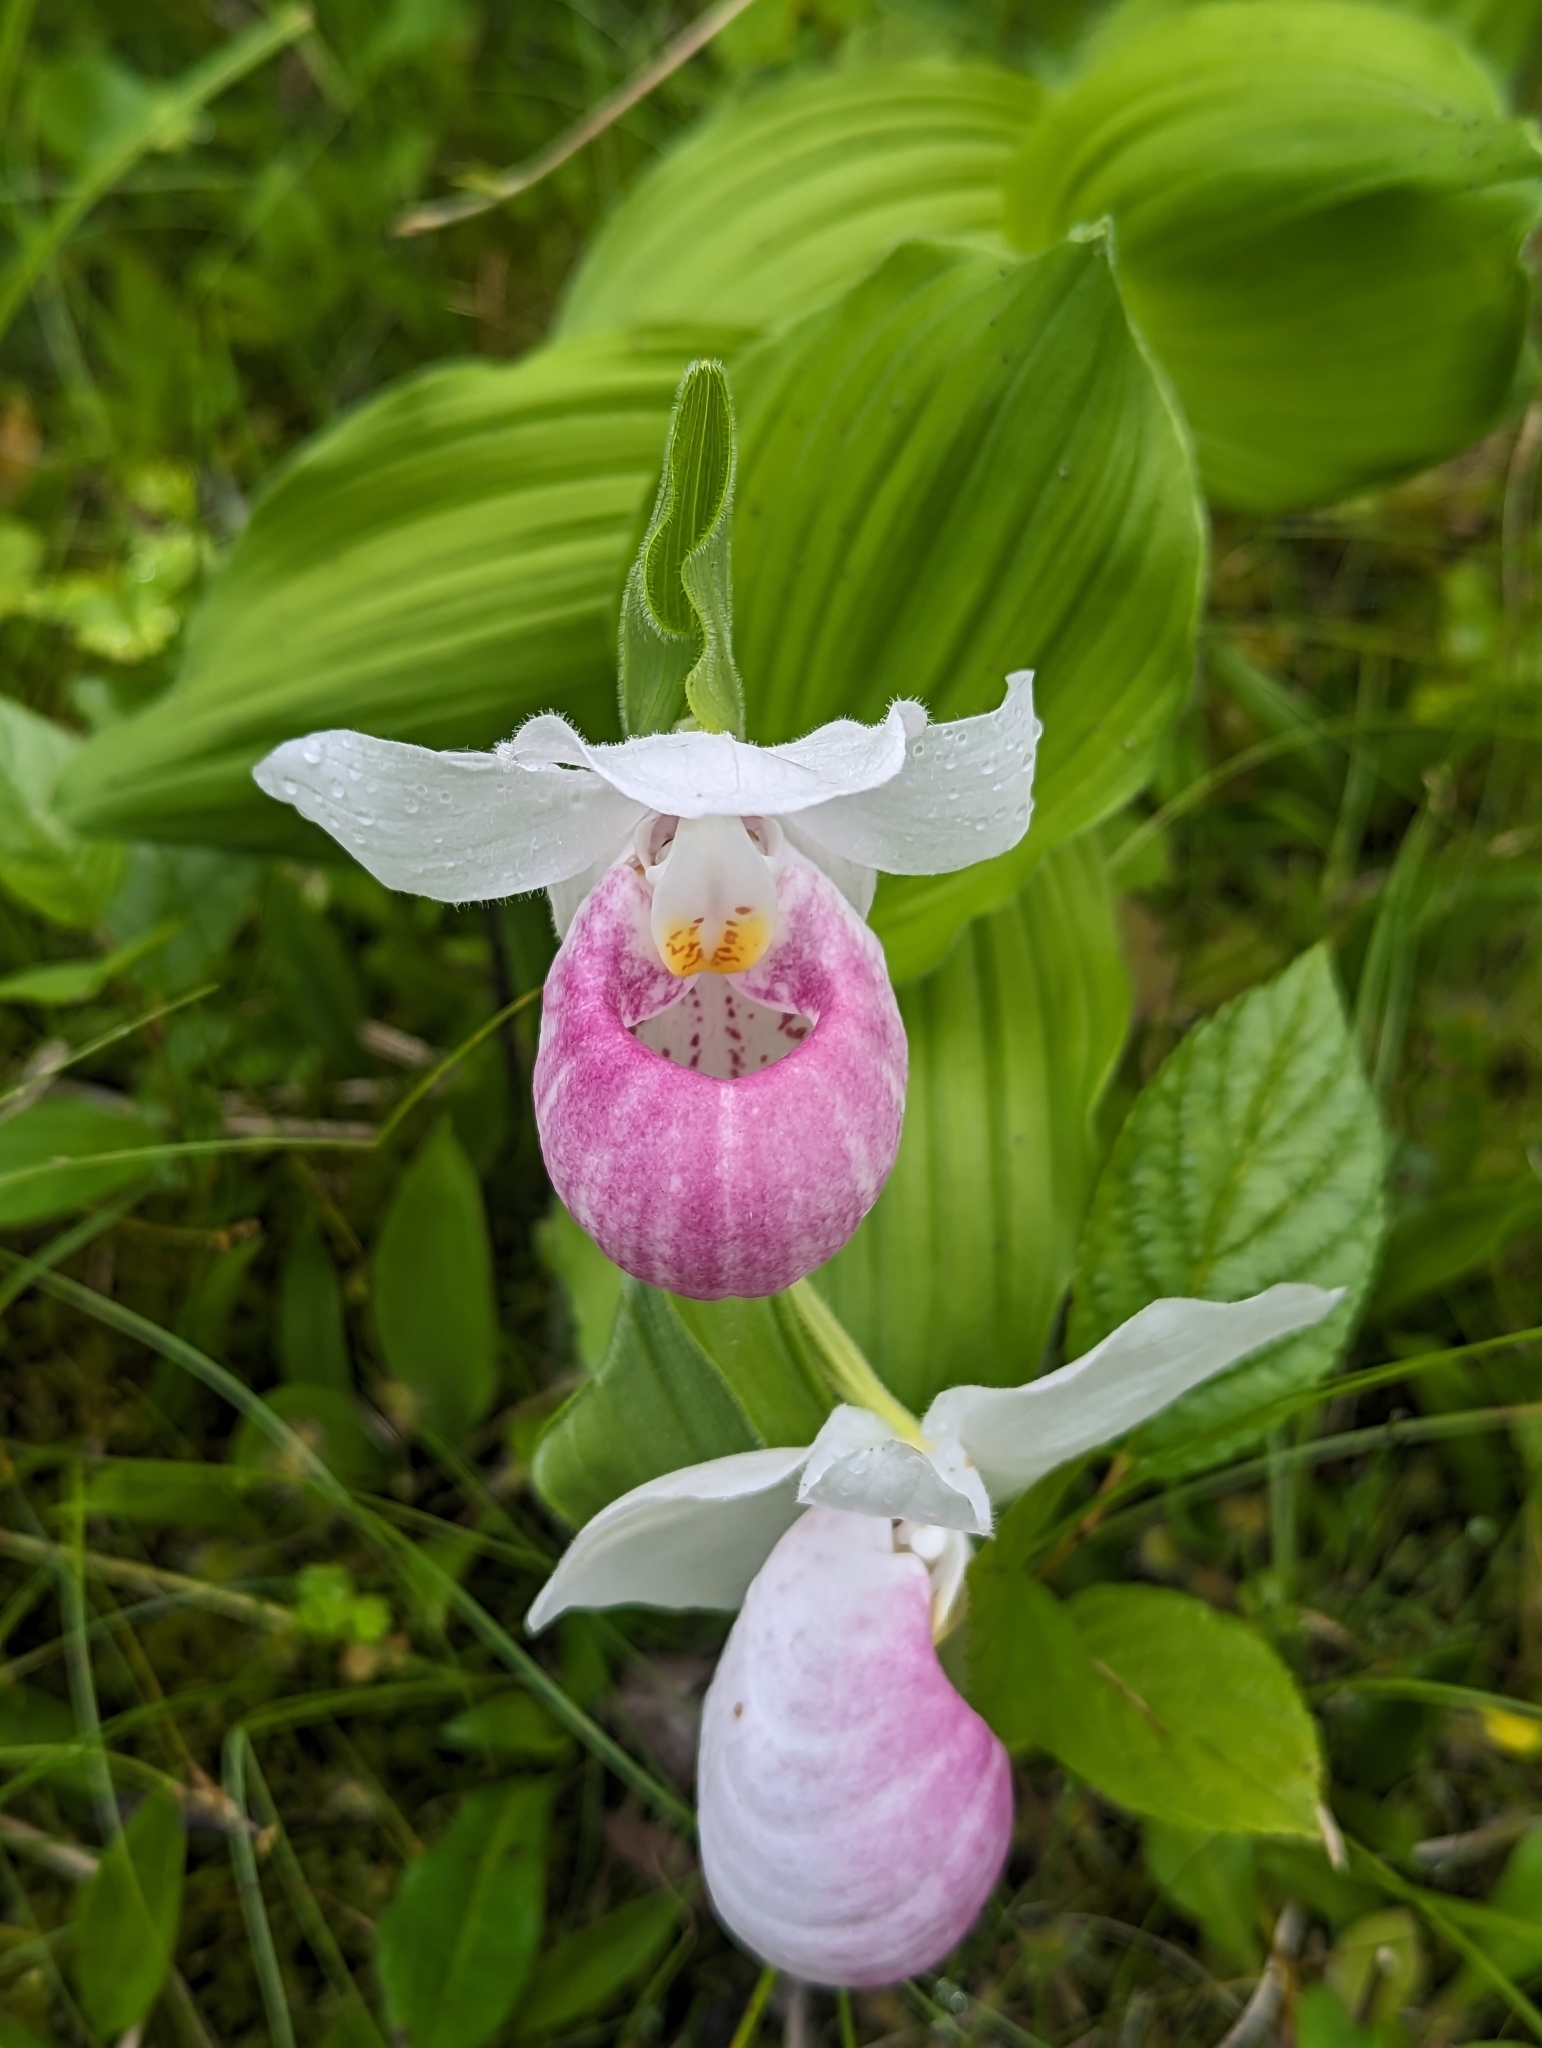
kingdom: Plantae
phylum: Tracheophyta
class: Liliopsida
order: Asparagales
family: Orchidaceae
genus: Cypripedium
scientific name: Cypripedium reginae
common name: Queen lady's-slipper
